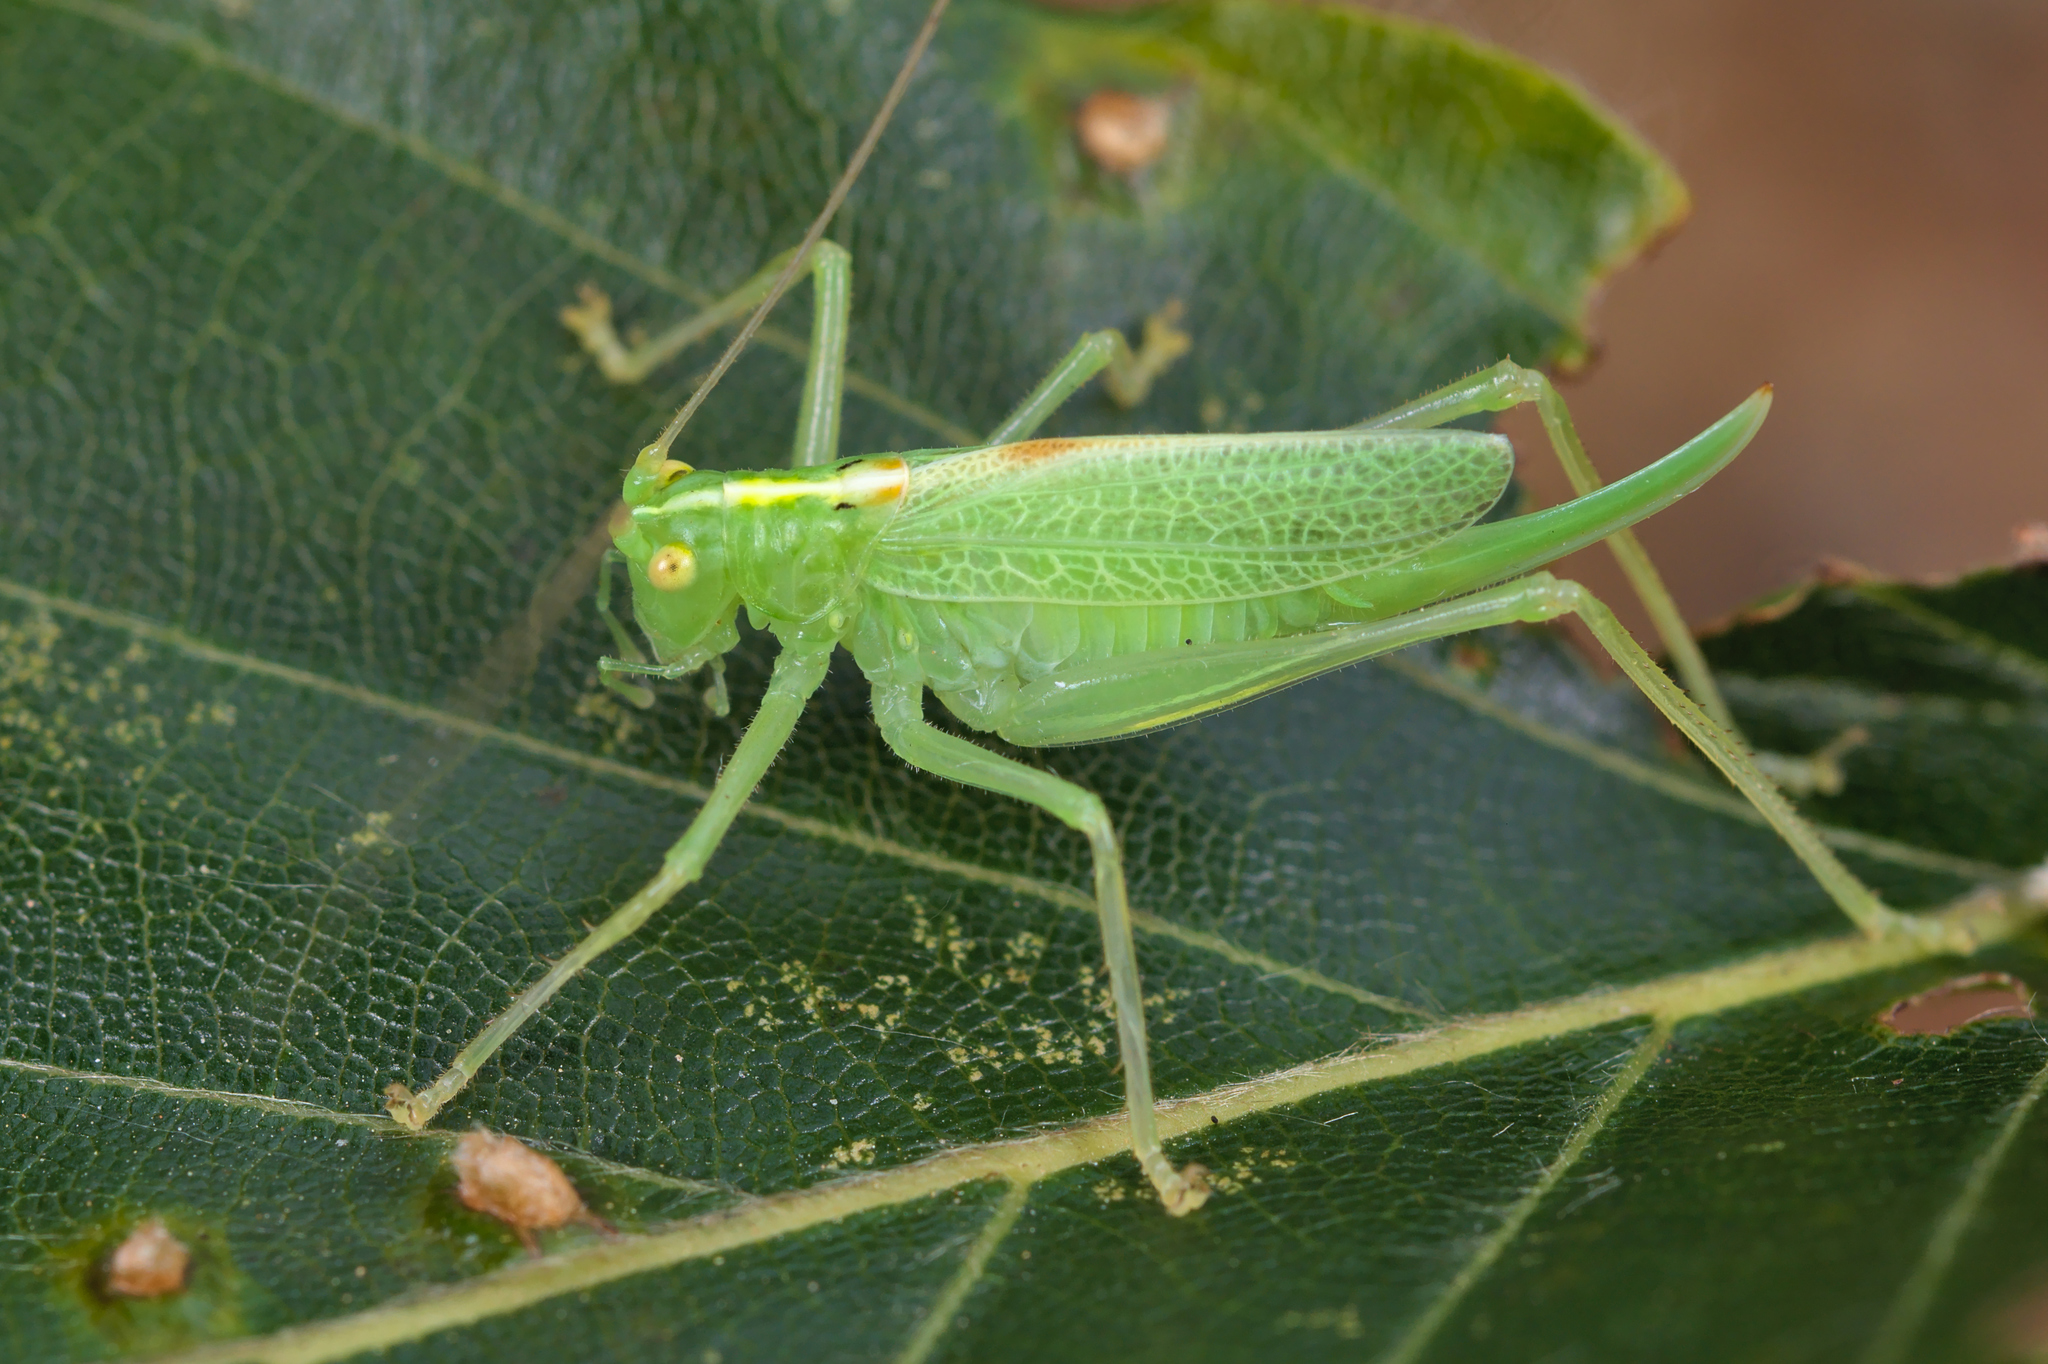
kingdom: Animalia
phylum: Arthropoda
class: Insecta
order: Orthoptera
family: Tettigoniidae
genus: Meconema
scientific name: Meconema thalassinum
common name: Oak bush-cricket
